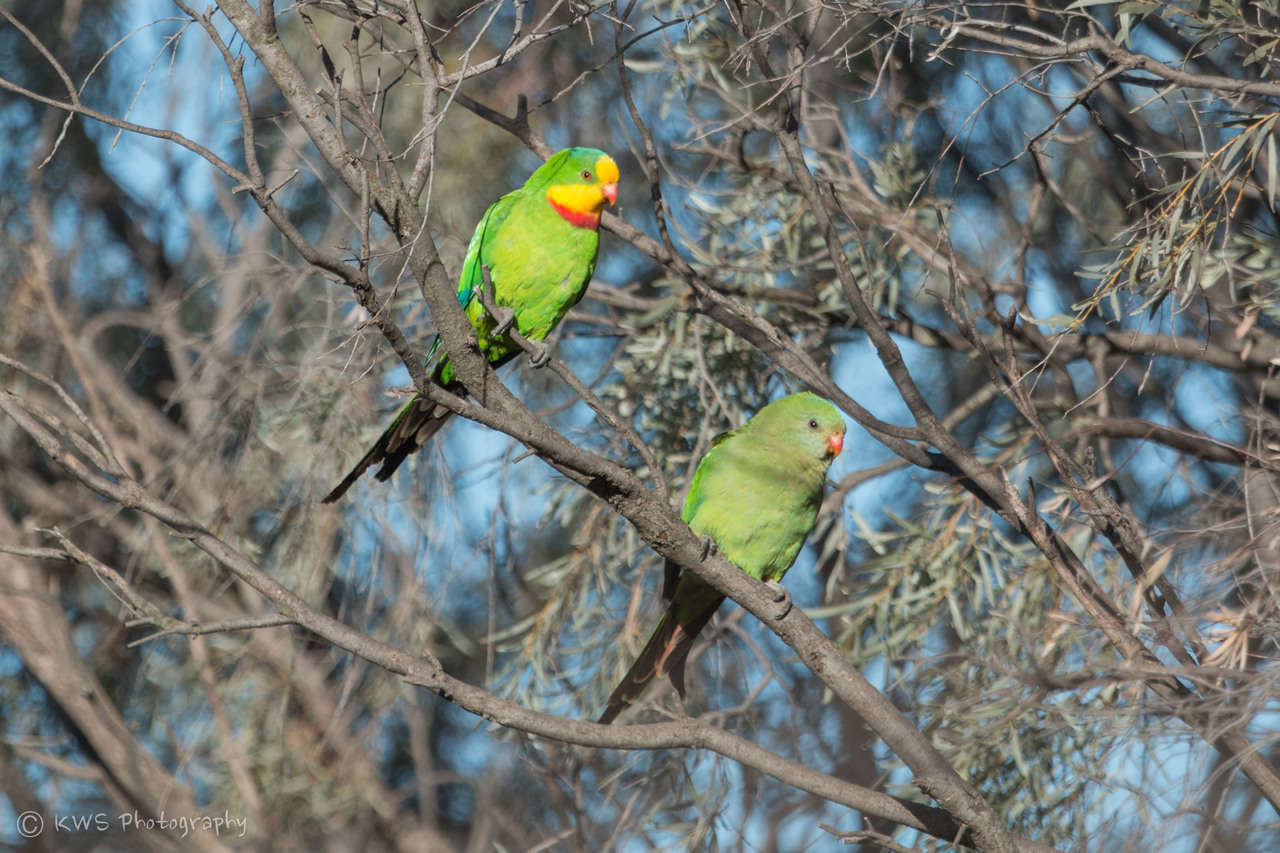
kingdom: Animalia
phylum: Chordata
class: Aves
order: Psittaciformes
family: Psittacidae
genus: Polytelis
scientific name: Polytelis swainsonii
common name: Superb parrot
